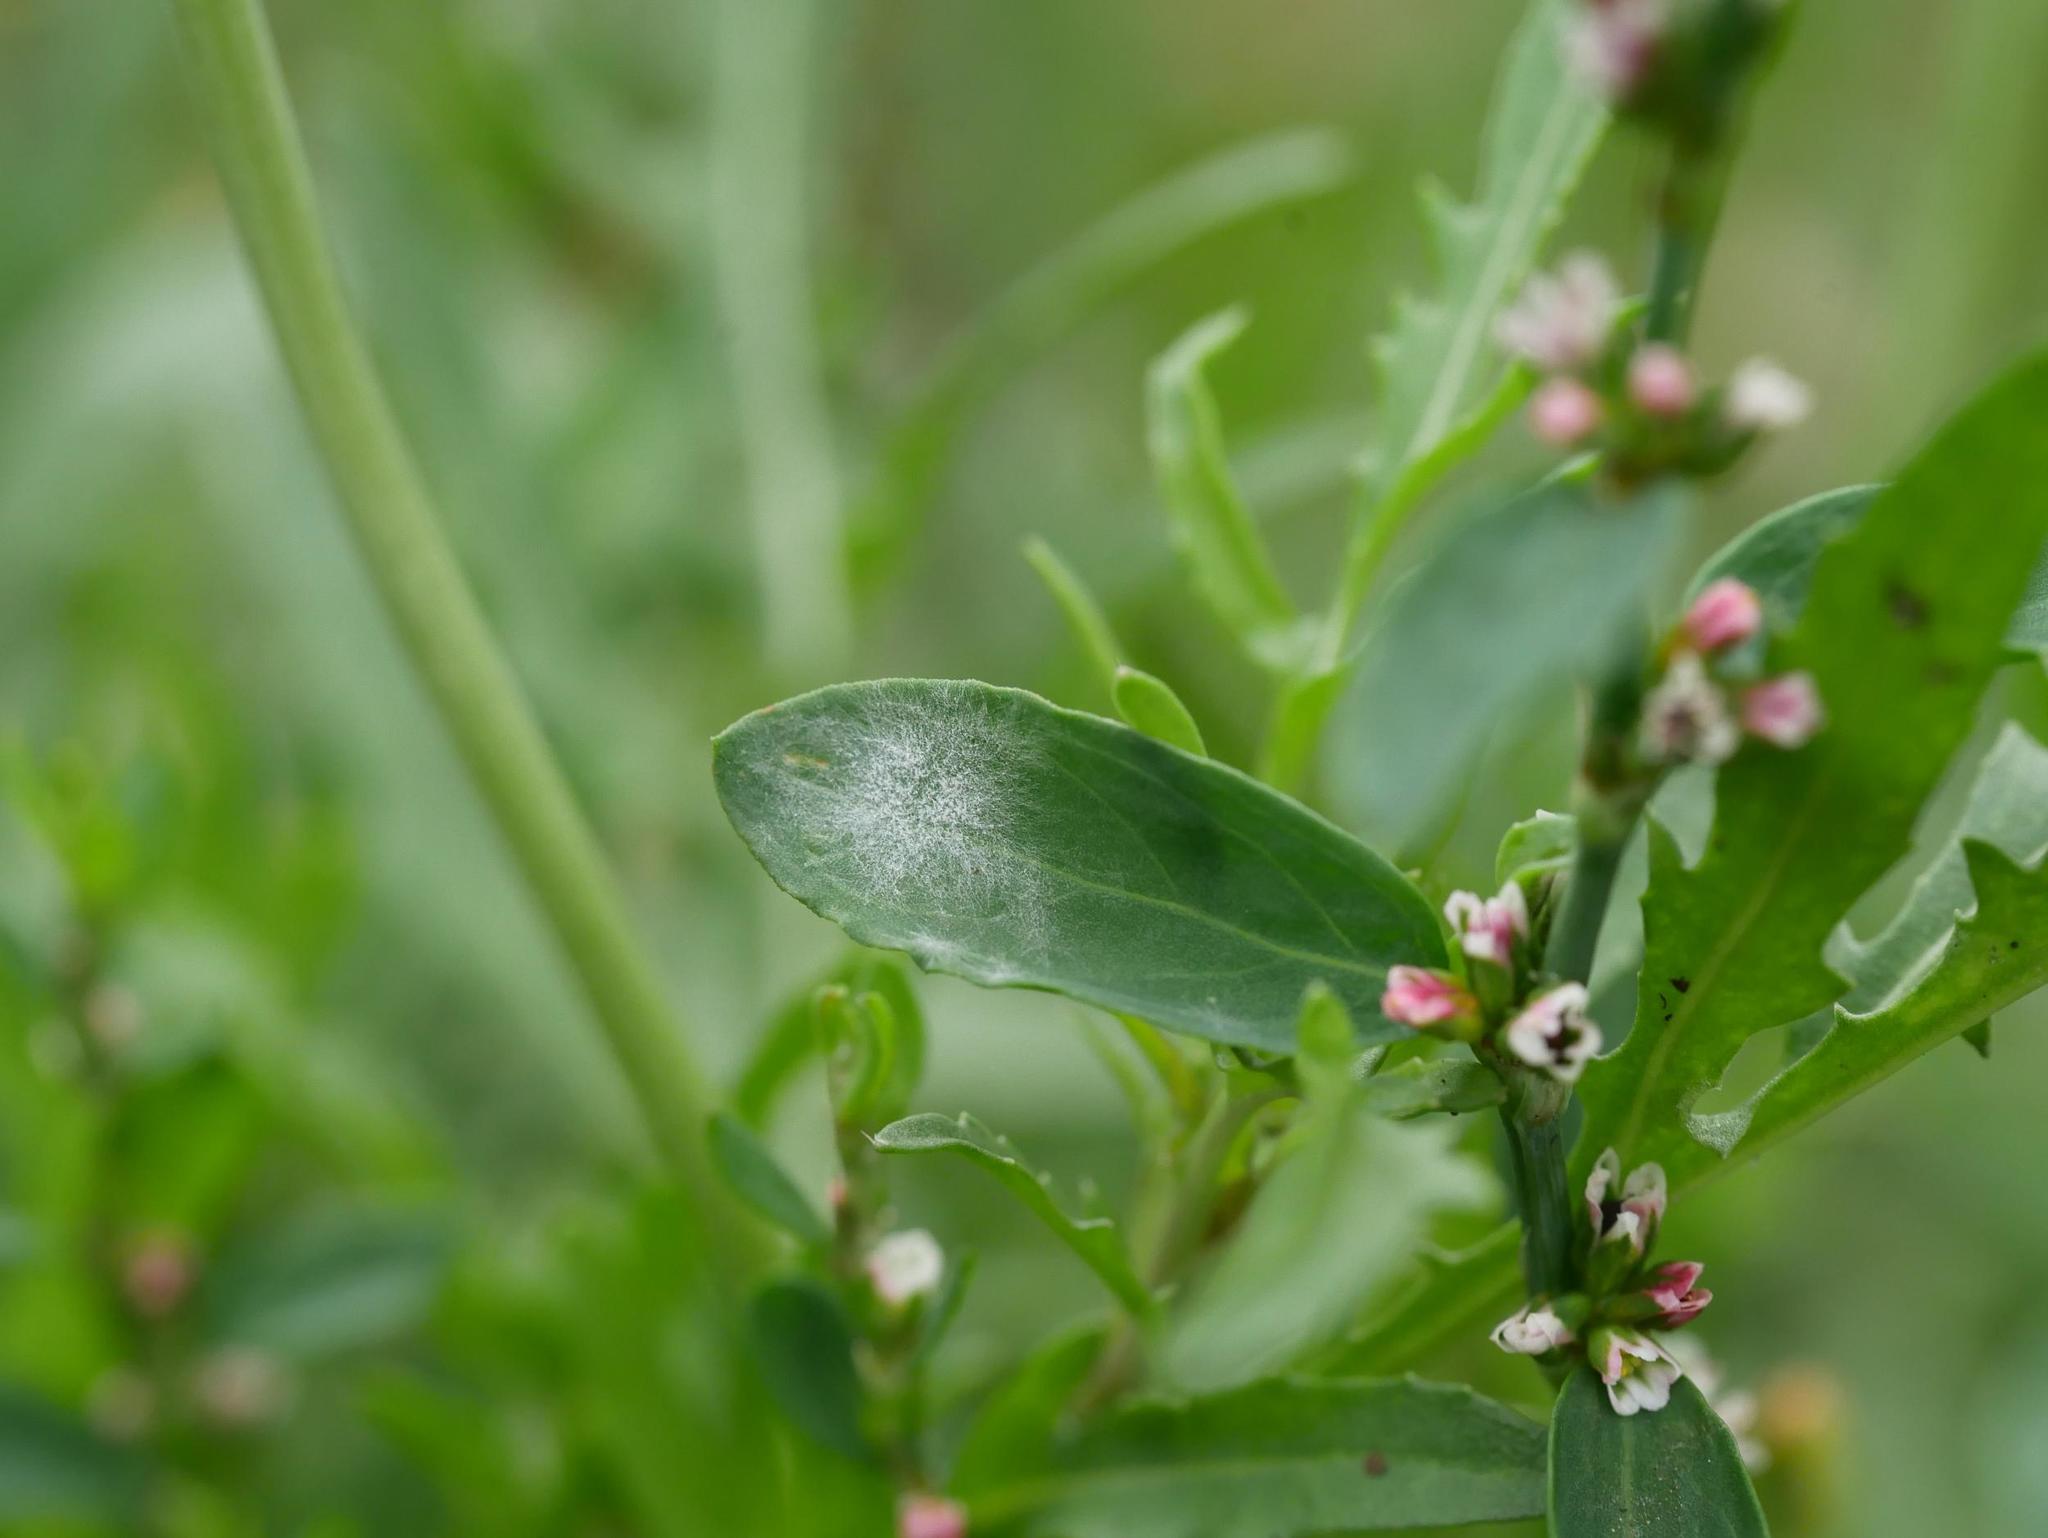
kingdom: Fungi
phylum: Ascomycota
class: Leotiomycetes
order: Helotiales
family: Erysiphaceae
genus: Erysiphe
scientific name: Erysiphe polygoni
